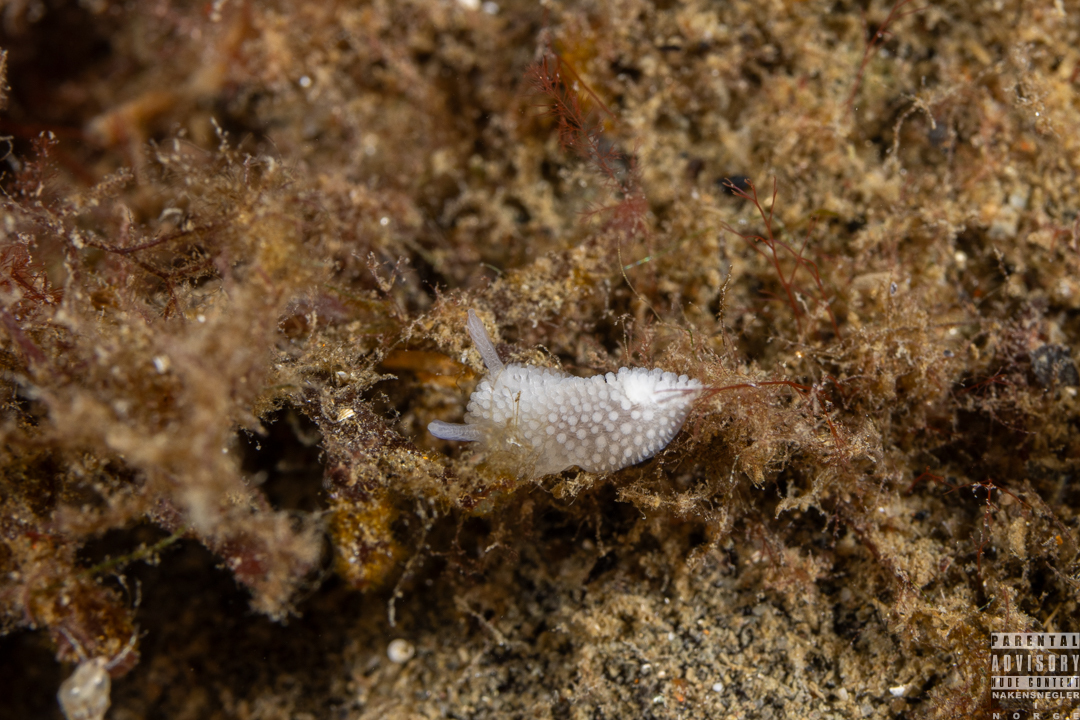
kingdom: Animalia
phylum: Mollusca
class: Gastropoda
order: Nudibranchia
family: Onchidorididae
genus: Onchidoris
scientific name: Onchidoris muricata
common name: Rough doris
